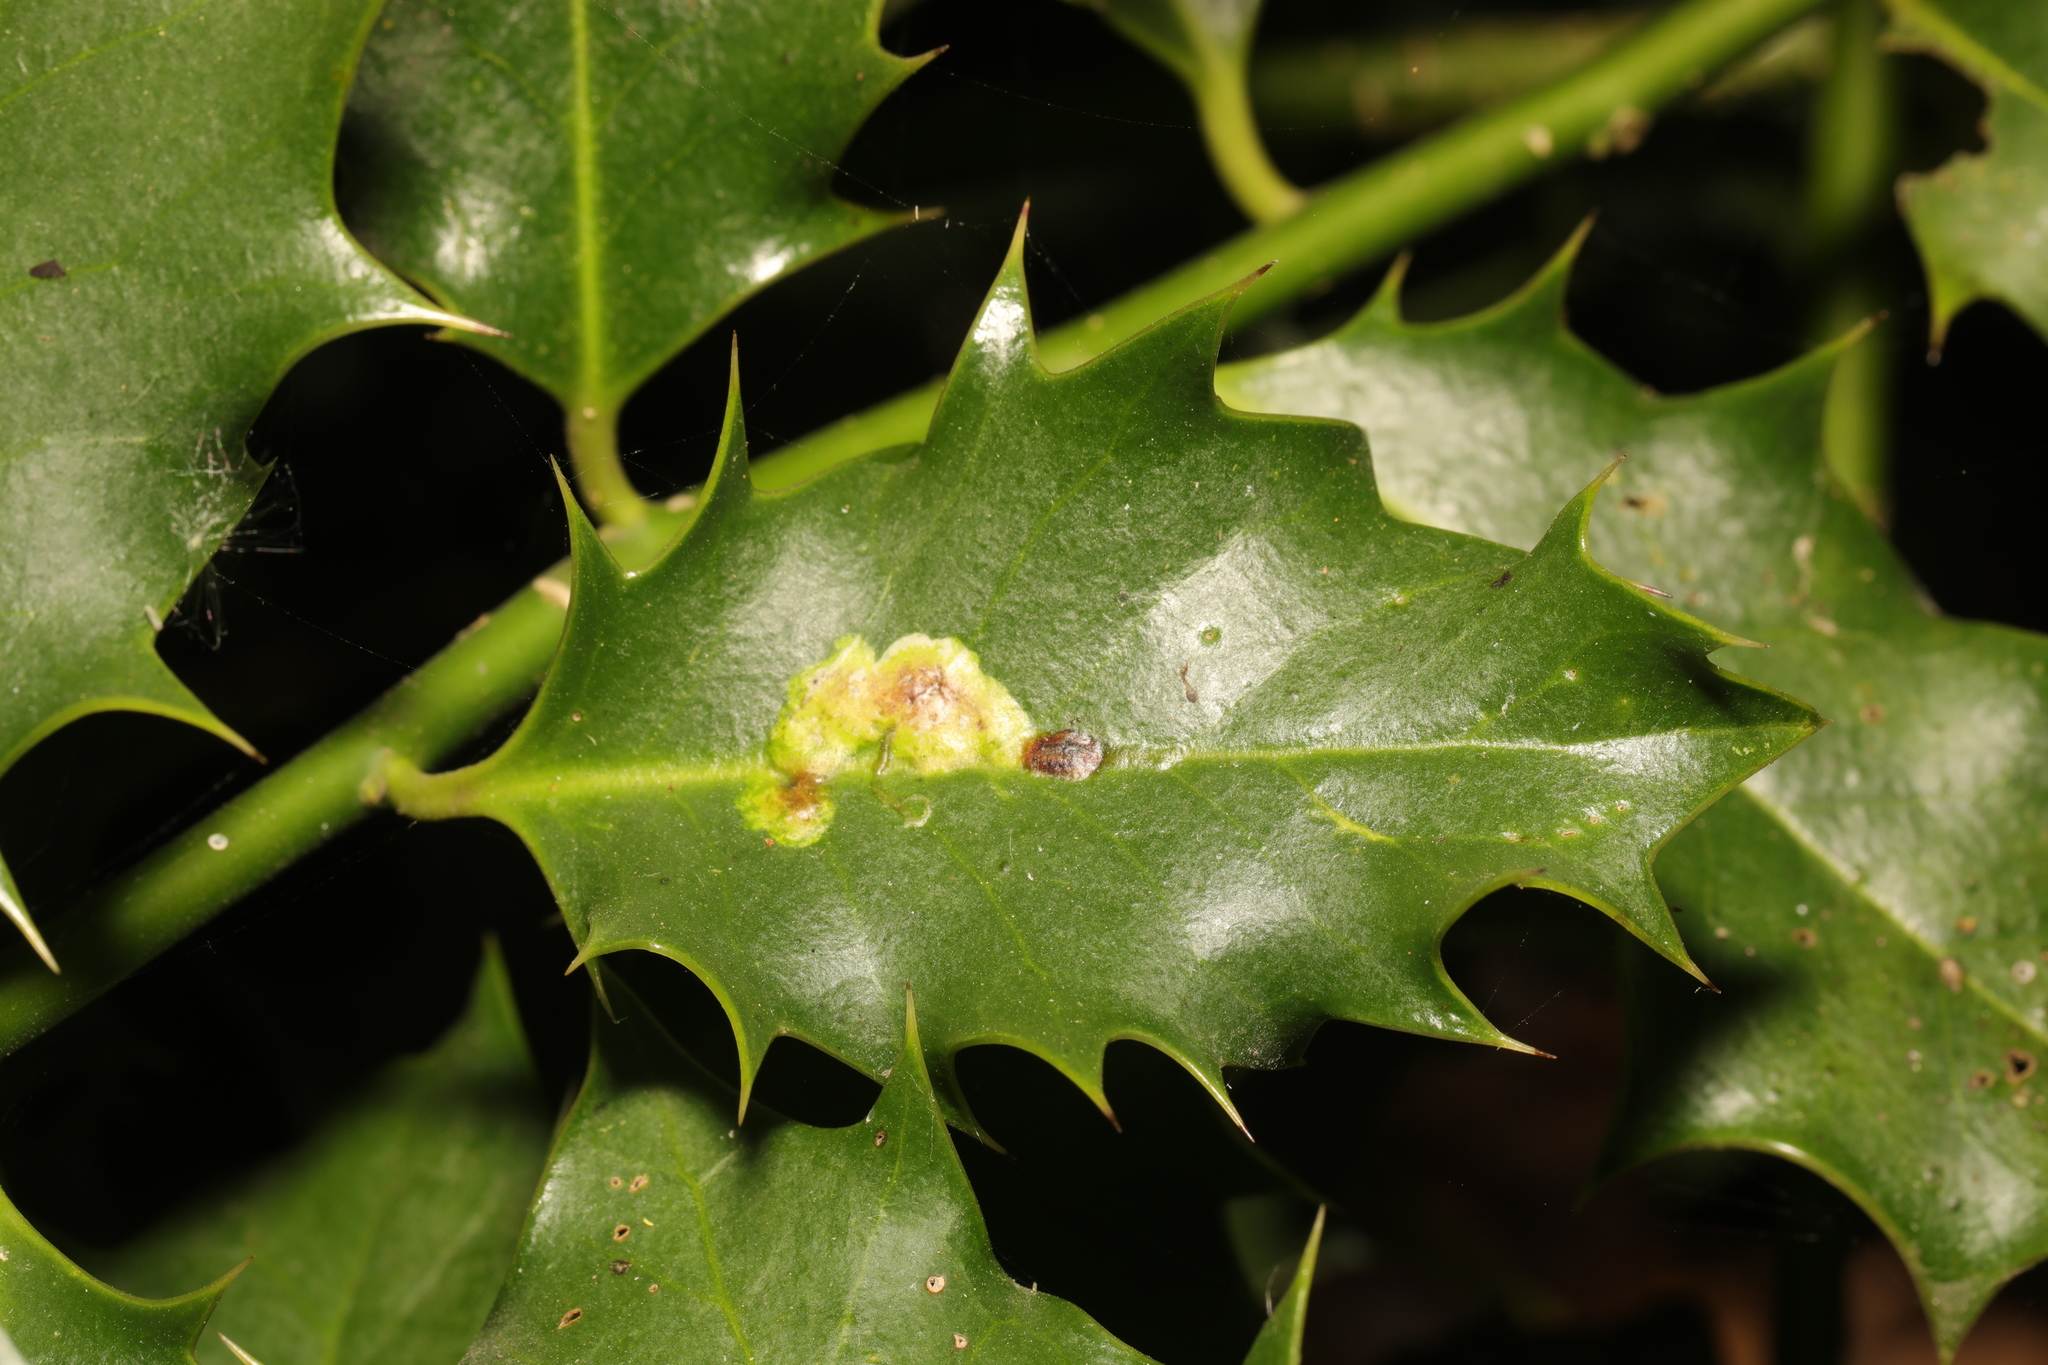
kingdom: Animalia
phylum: Arthropoda
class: Insecta
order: Diptera
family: Agromyzidae
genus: Phytomyza
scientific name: Phytomyza ilicis
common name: Holly leafminer
